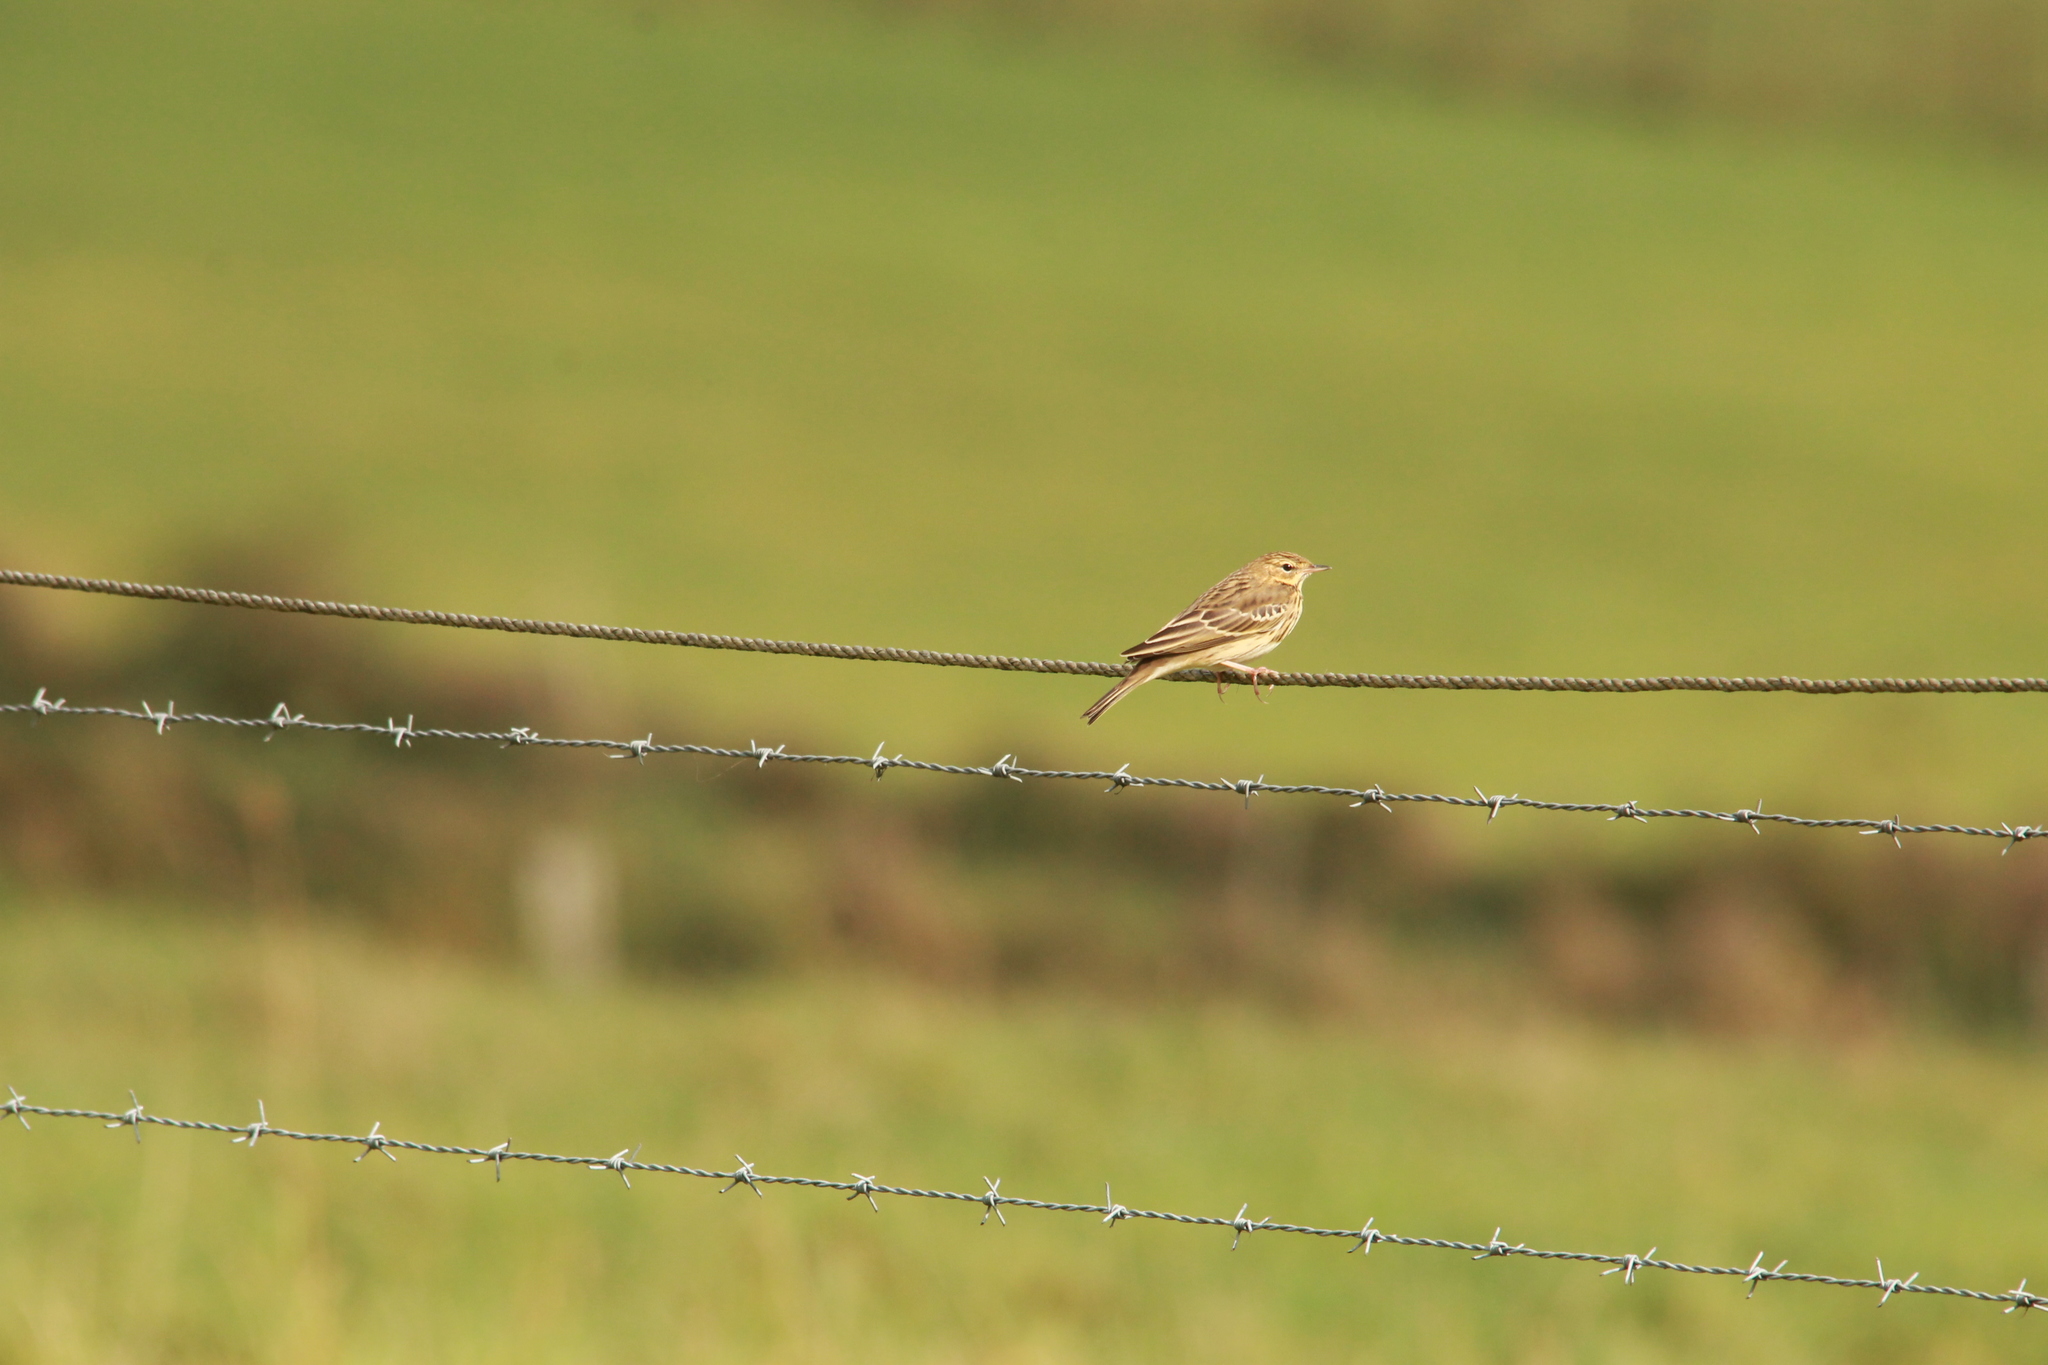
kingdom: Animalia
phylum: Chordata
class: Aves
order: Passeriformes
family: Motacillidae
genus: Anthus
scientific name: Anthus pratensis
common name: Meadow pipit
